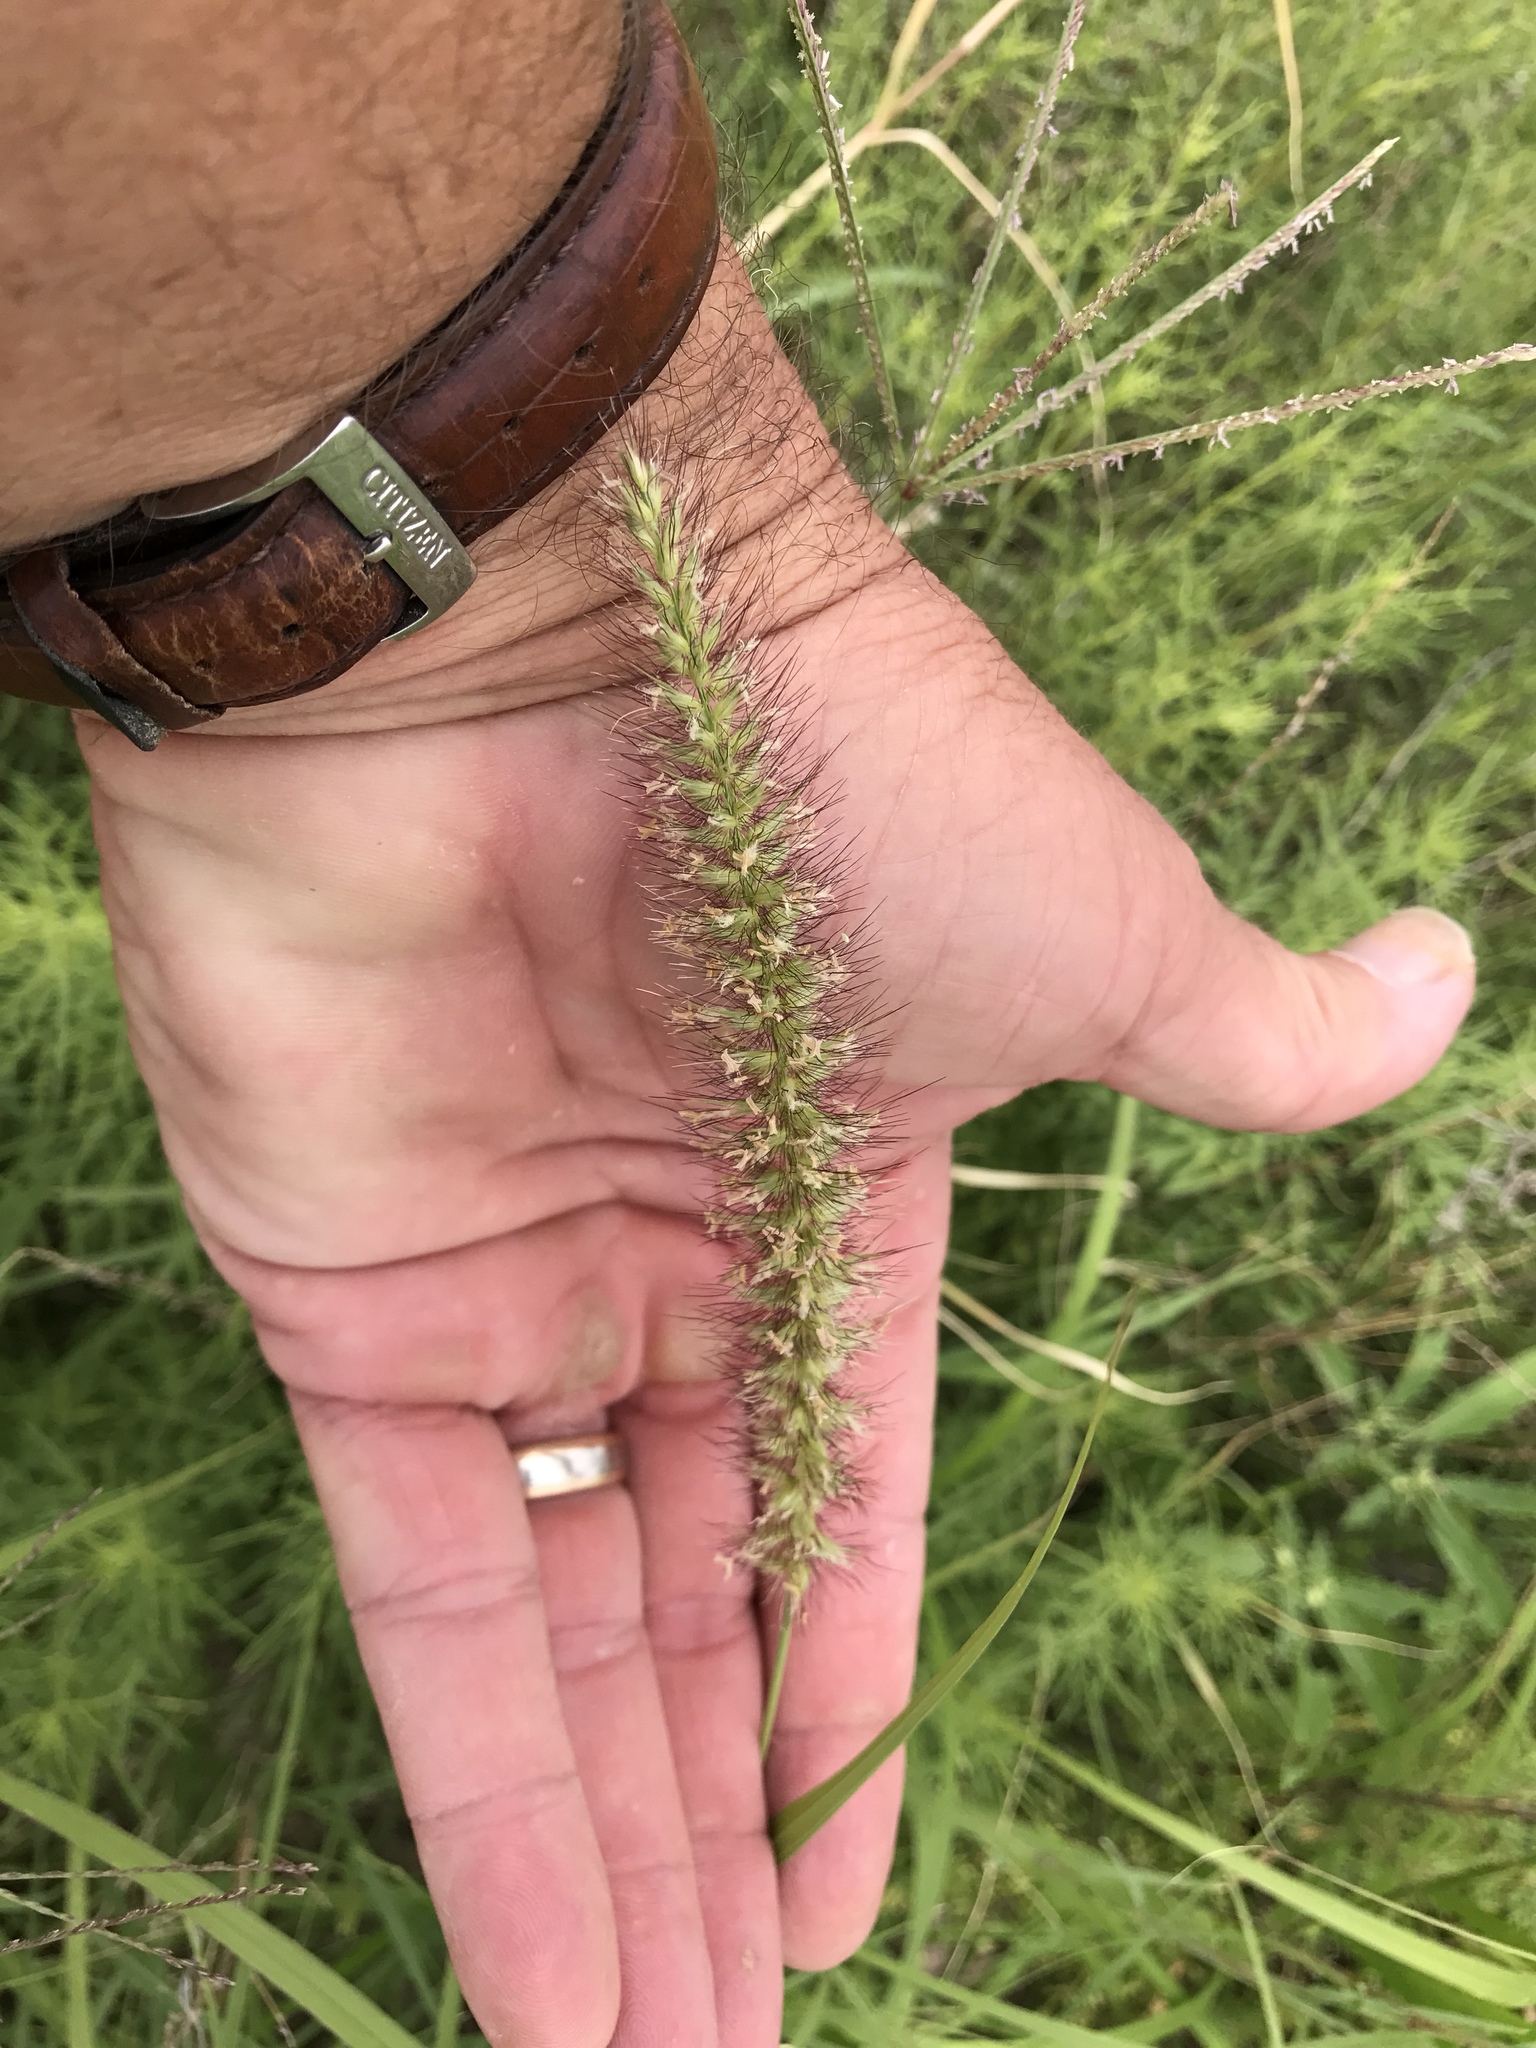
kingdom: Plantae
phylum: Tracheophyta
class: Liliopsida
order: Poales
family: Poaceae
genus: Cenchrus
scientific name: Cenchrus ciliaris
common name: Buffelgrass
